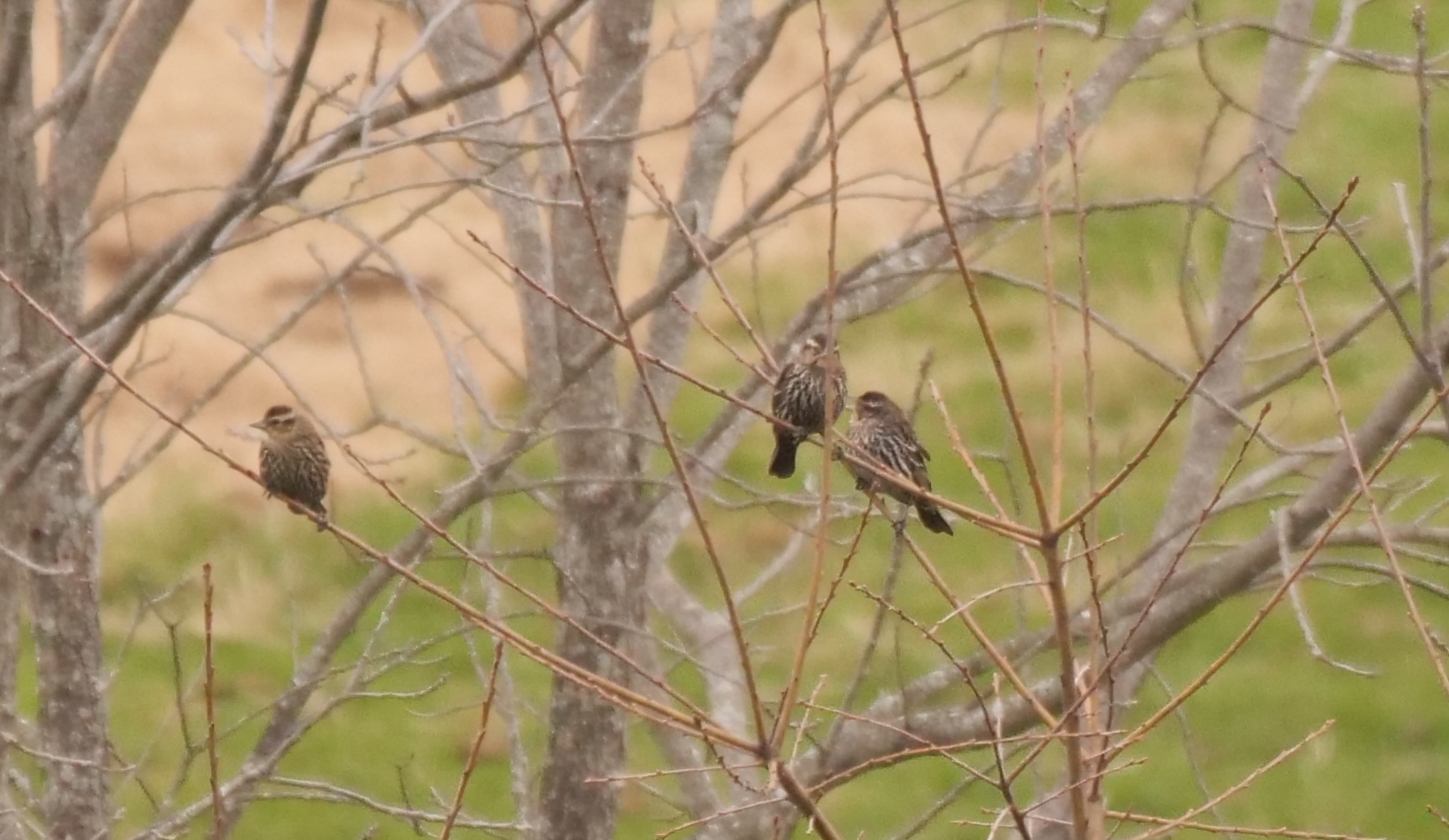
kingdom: Animalia
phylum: Chordata
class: Aves
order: Passeriformes
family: Icteridae
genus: Agelaius
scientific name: Agelaius phoeniceus
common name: Red-winged blackbird
